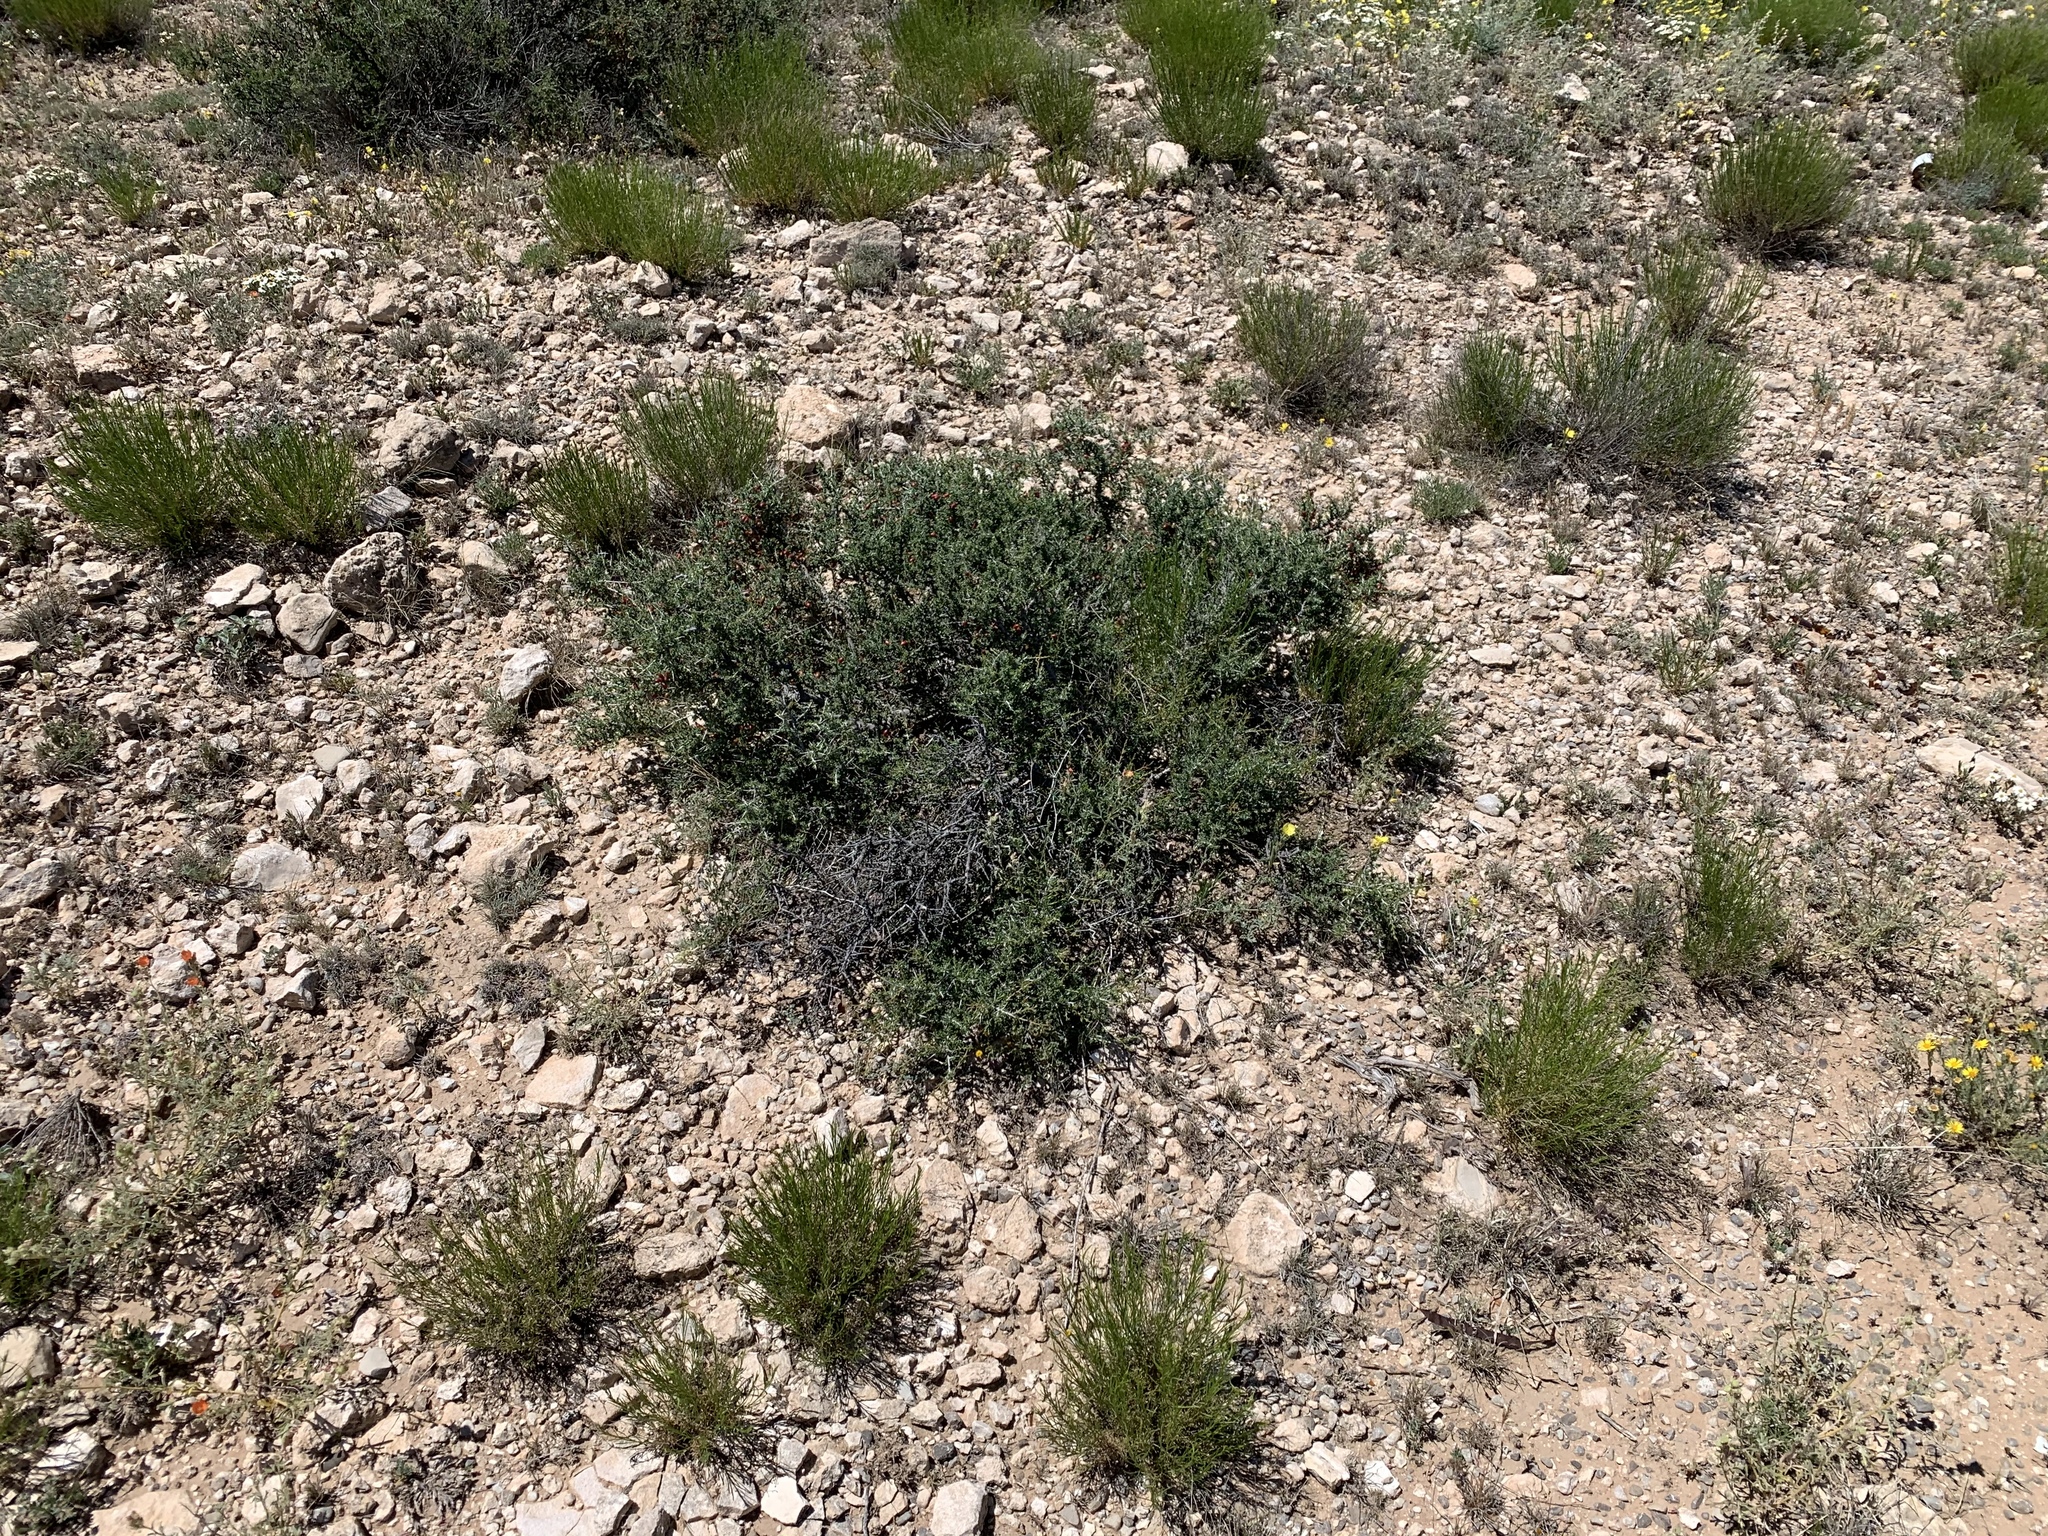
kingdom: Plantae
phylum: Tracheophyta
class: Magnoliopsida
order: Rosales
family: Rhamnaceae
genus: Condalia
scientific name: Condalia ericoides
